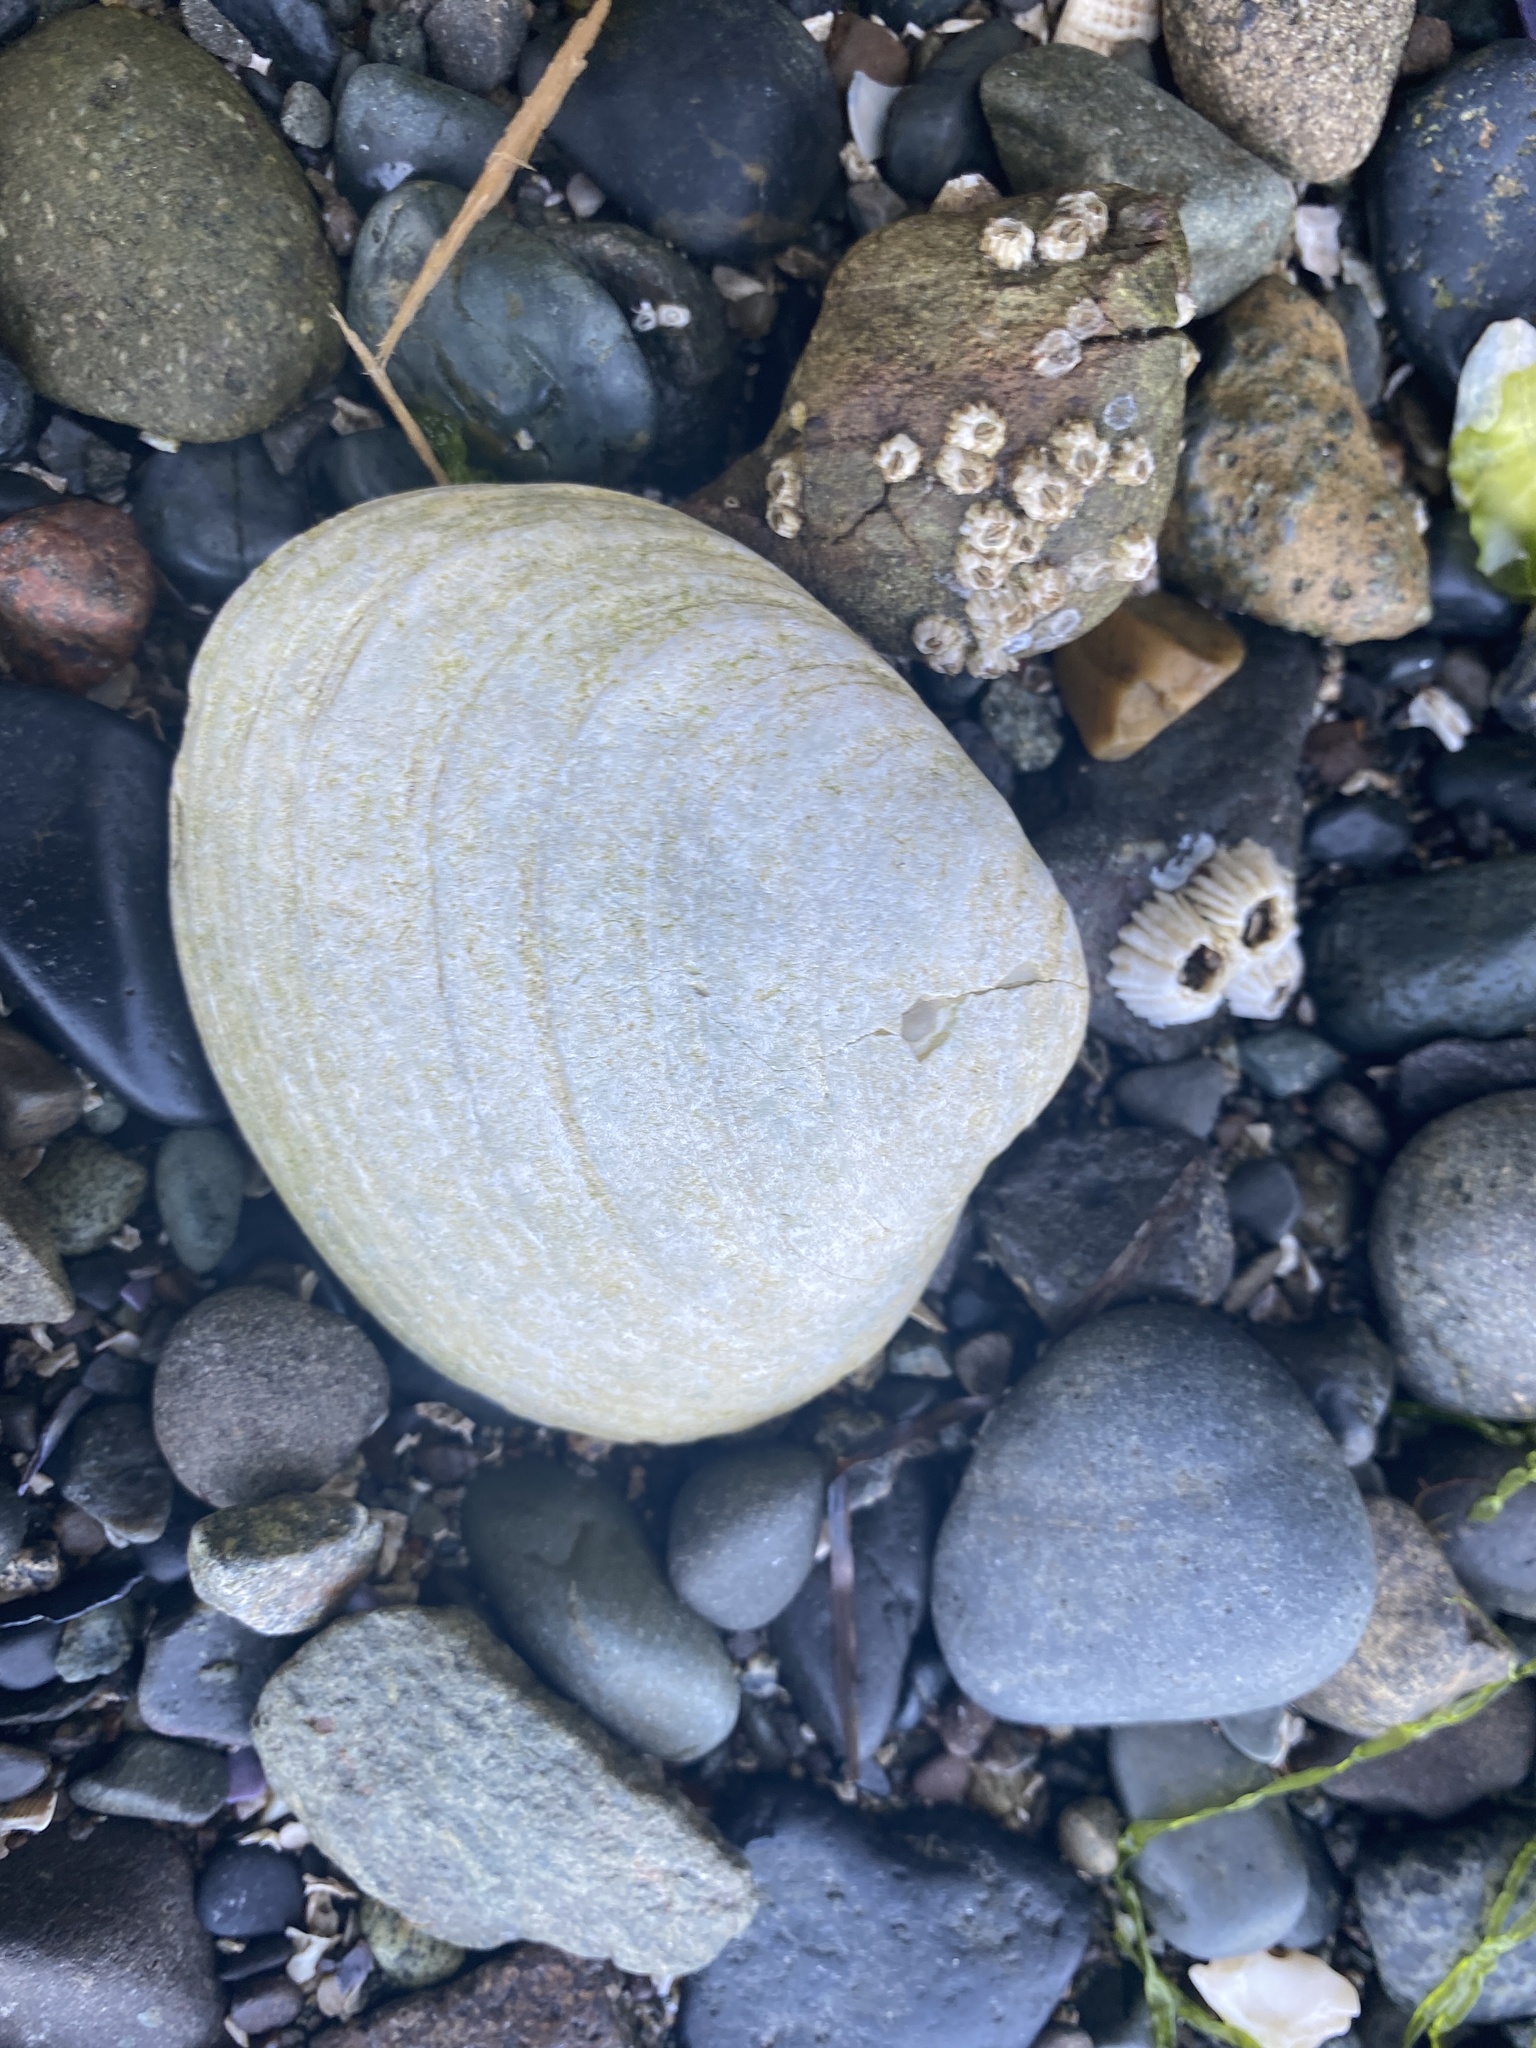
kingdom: Animalia
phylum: Mollusca
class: Bivalvia
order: Venerida
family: Veneridae
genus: Saxidomus
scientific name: Saxidomus gigantea
